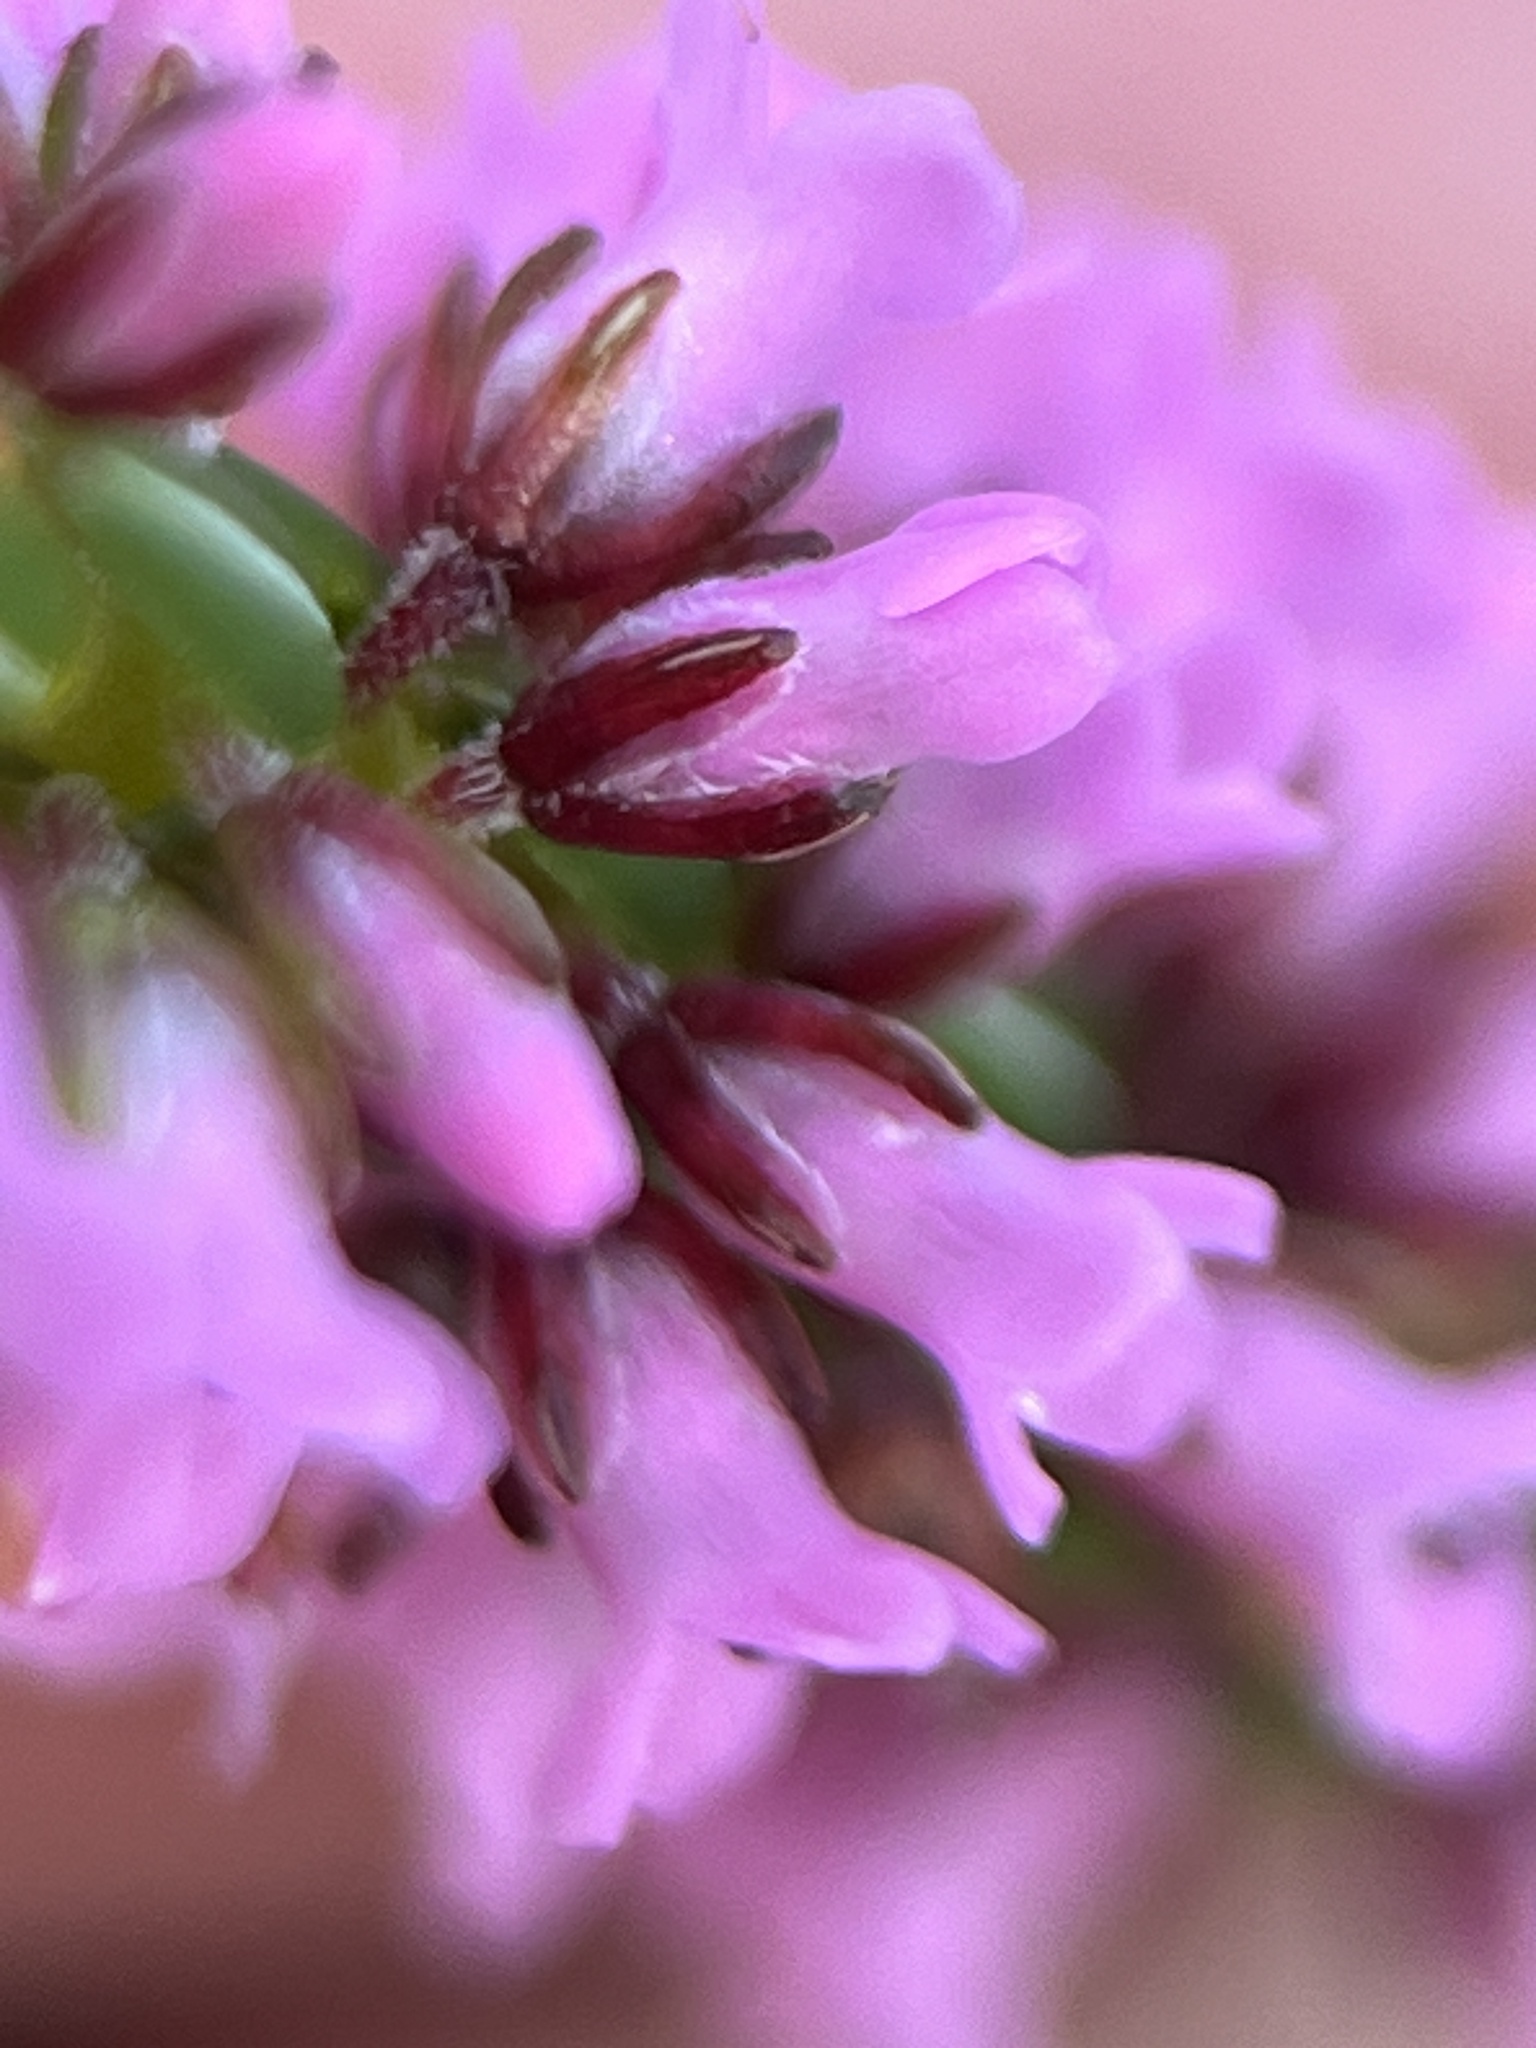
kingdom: Plantae
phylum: Tracheophyta
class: Magnoliopsida
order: Ericales
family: Ericaceae
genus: Erica
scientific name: Erica longiaristata
